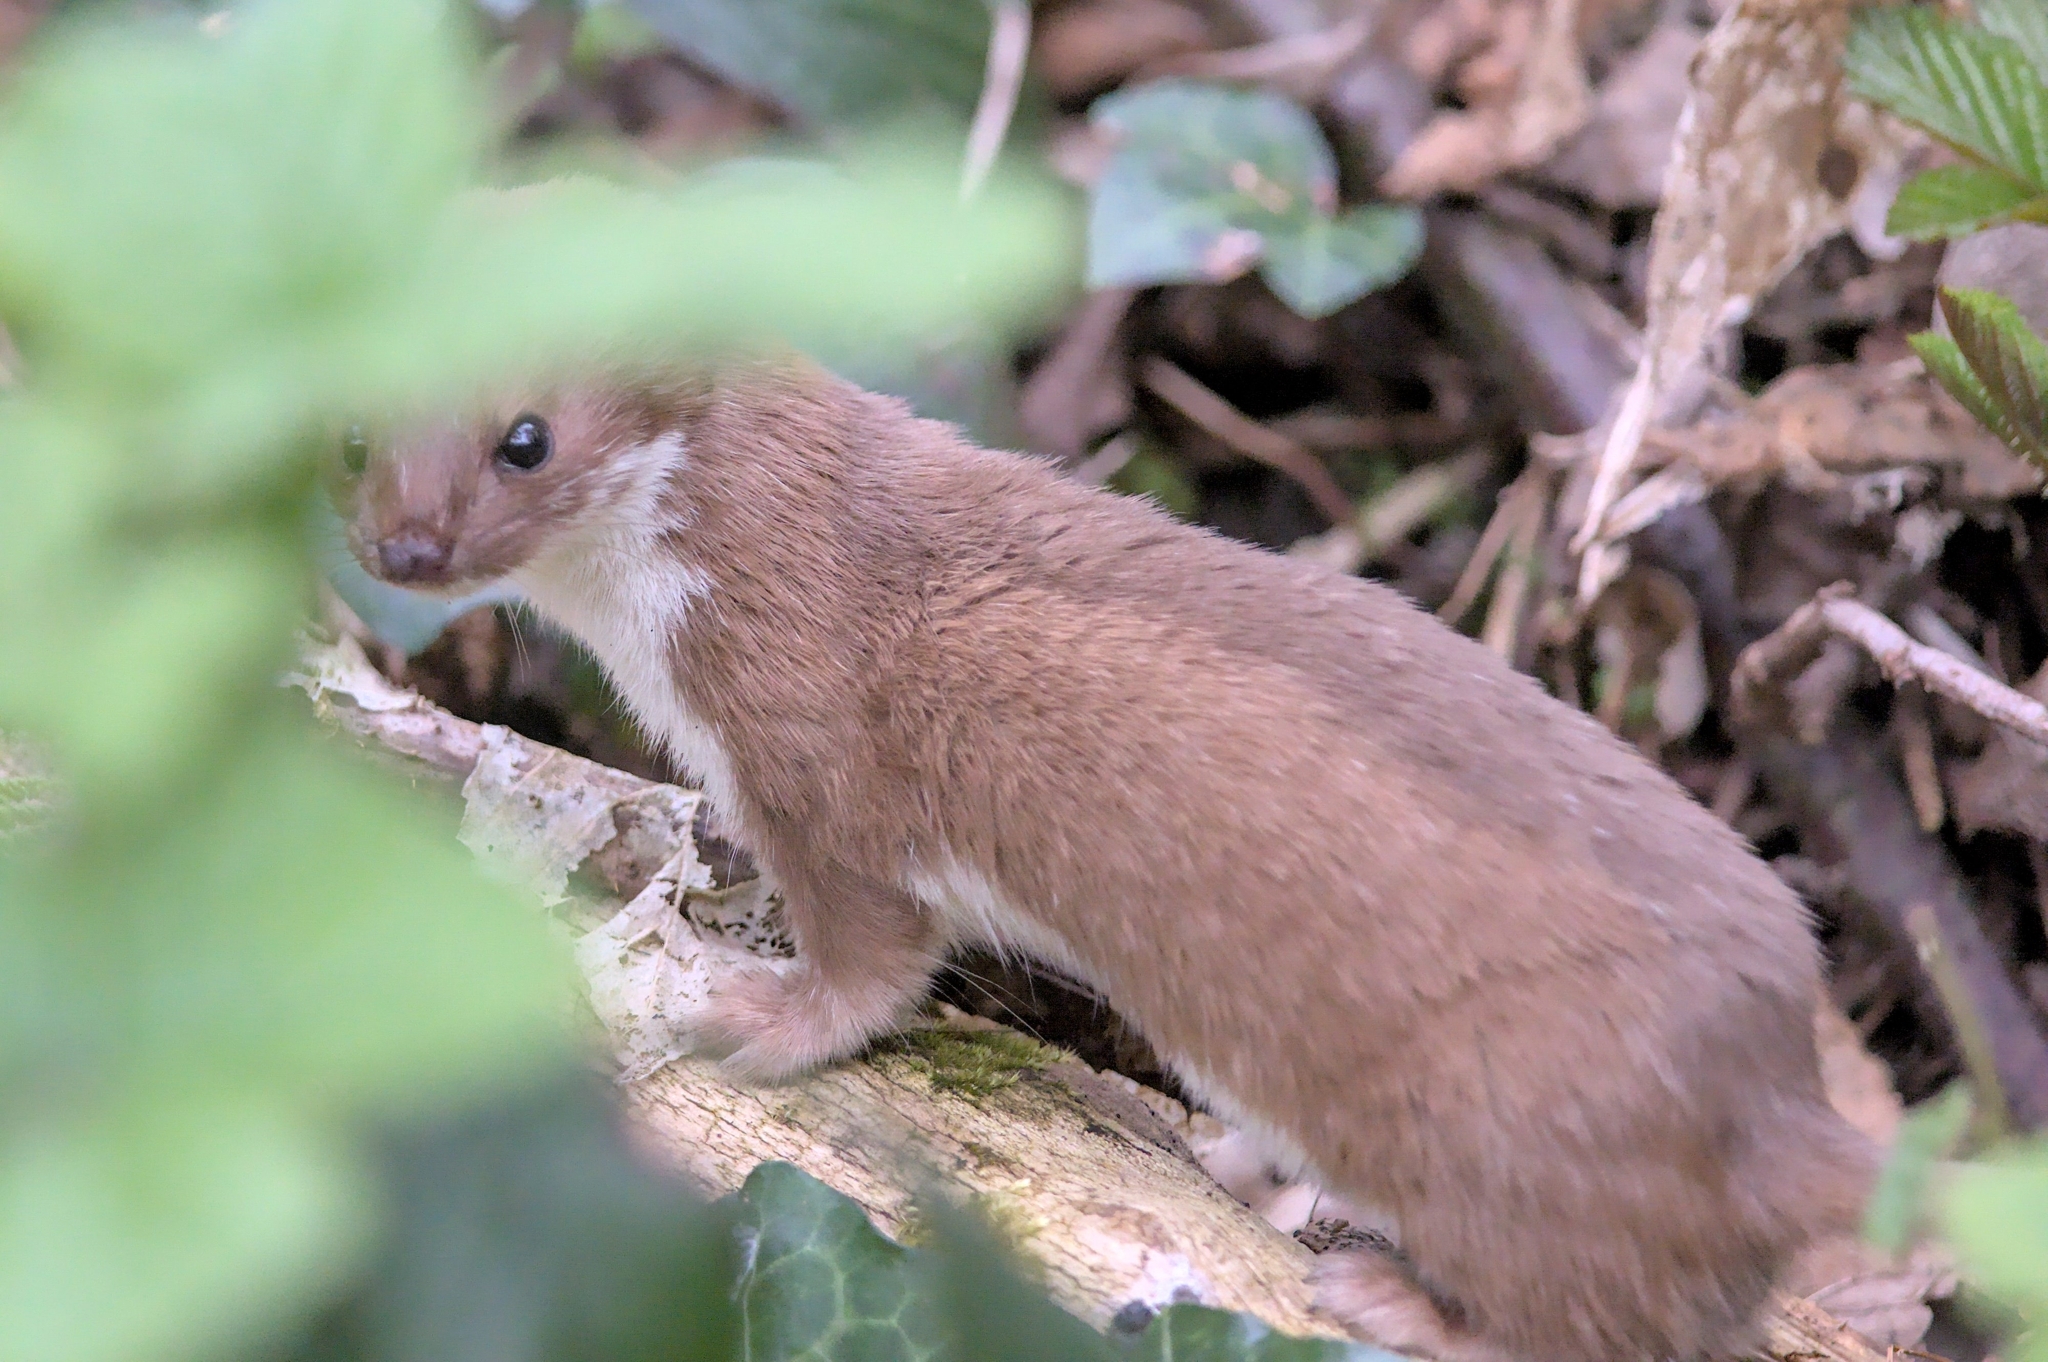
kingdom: Animalia
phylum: Chordata
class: Mammalia
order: Carnivora
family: Mustelidae
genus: Mustela
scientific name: Mustela nivalis
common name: Least weasel
